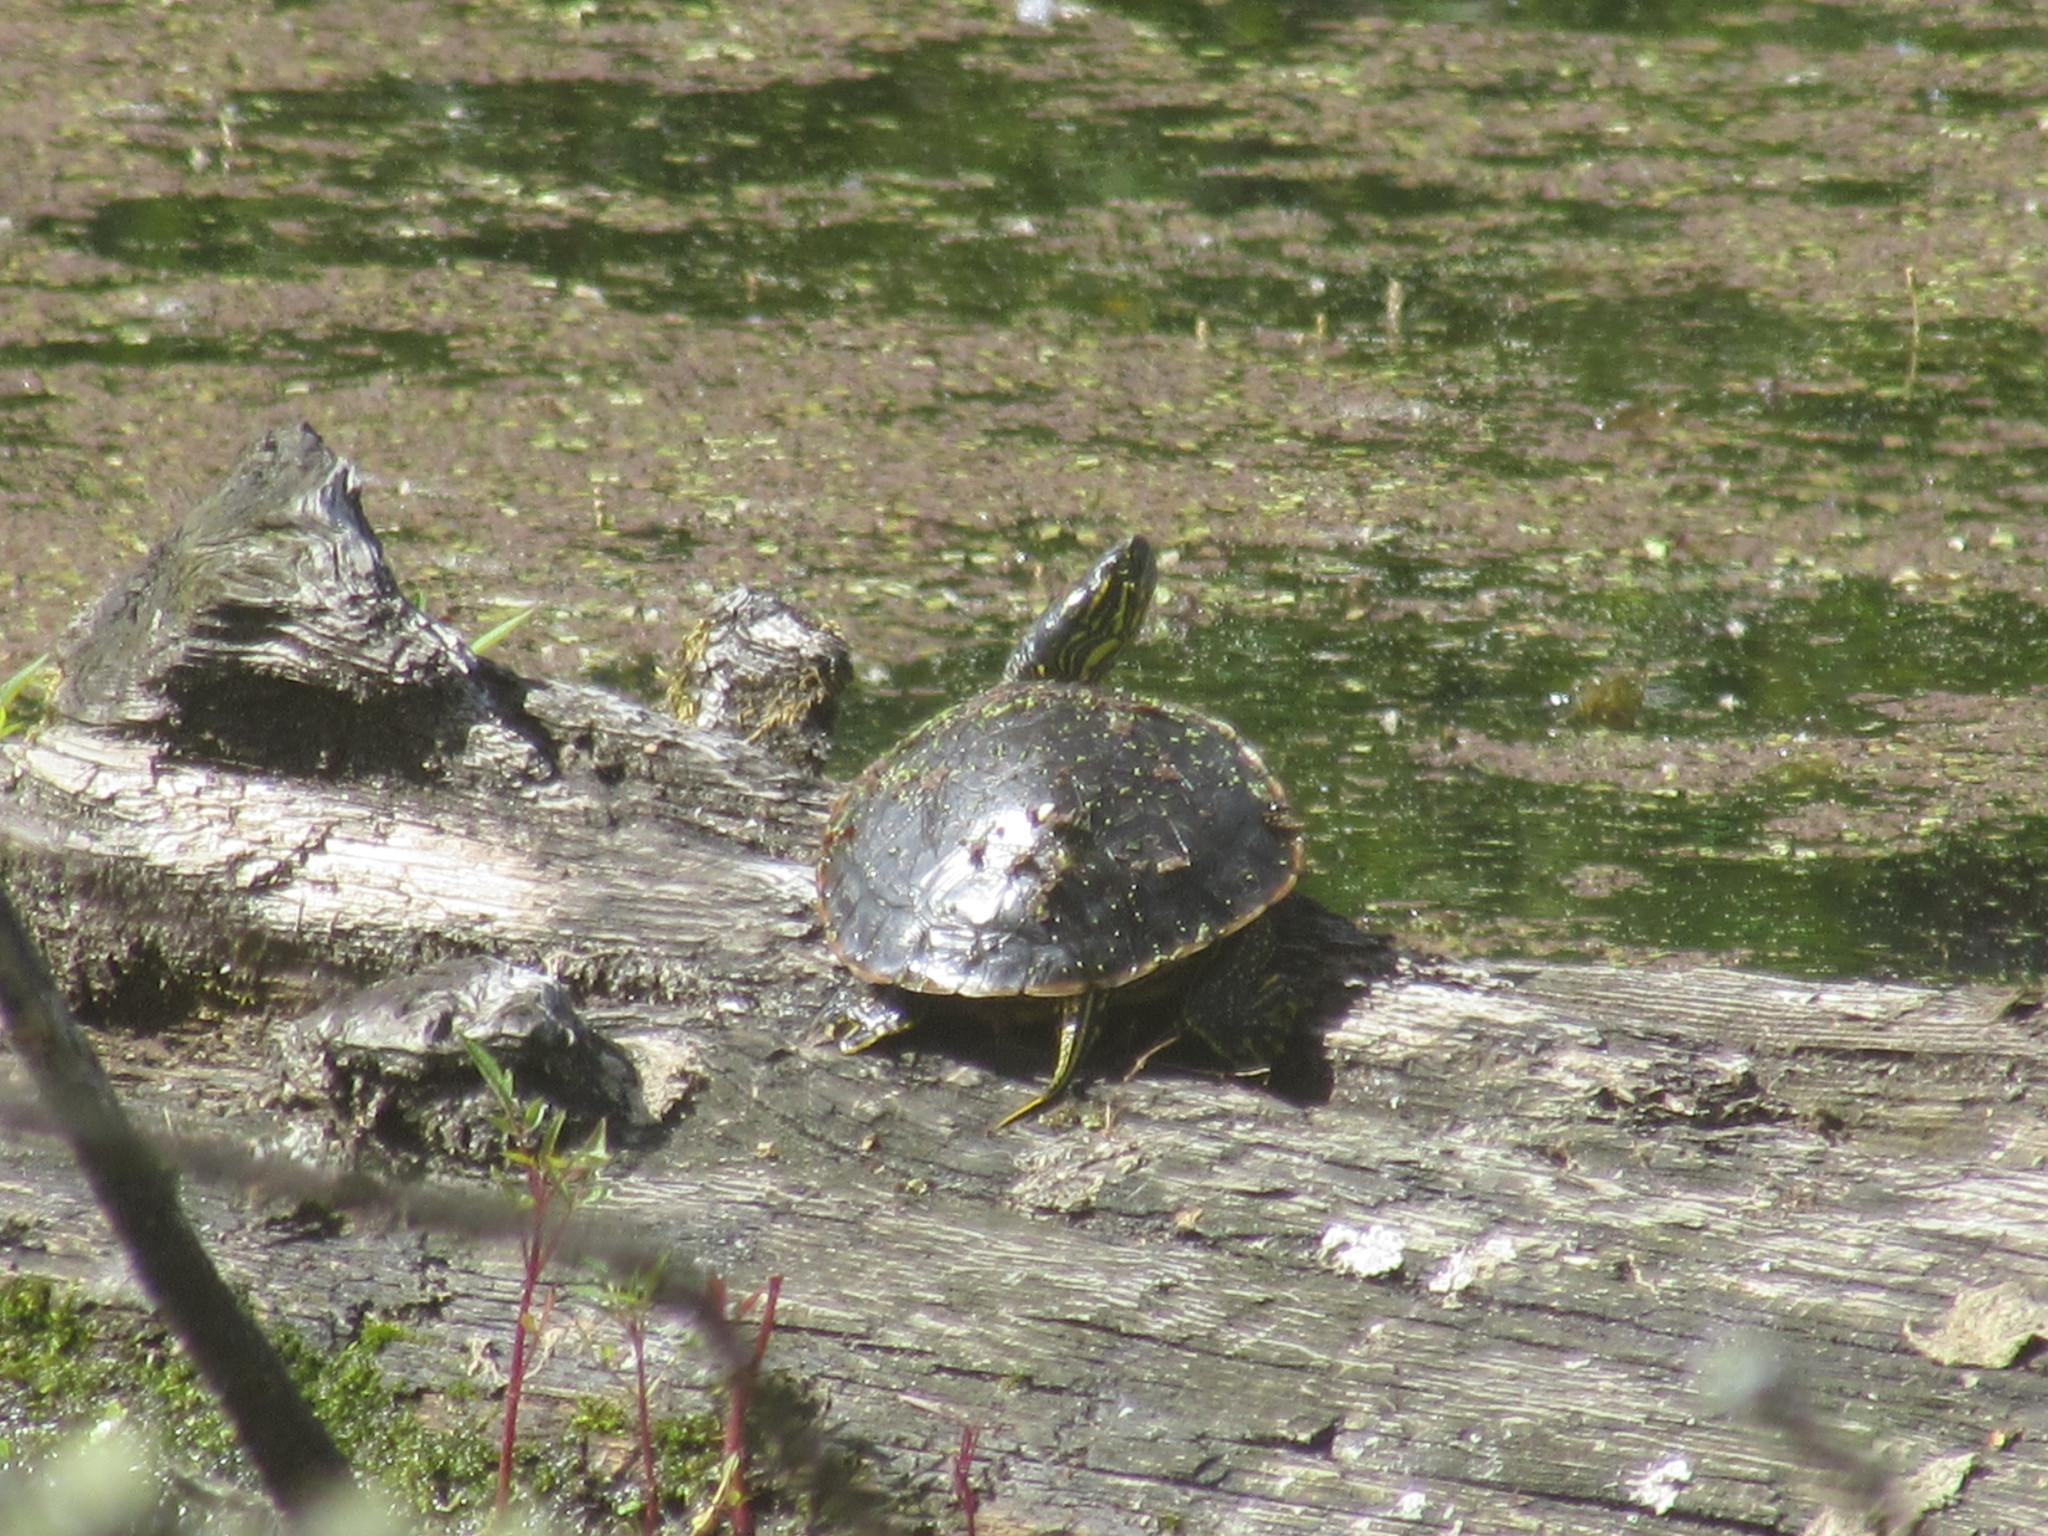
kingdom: Animalia
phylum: Chordata
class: Testudines
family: Emydidae
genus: Chrysemys
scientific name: Chrysemys picta
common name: Painted turtle
